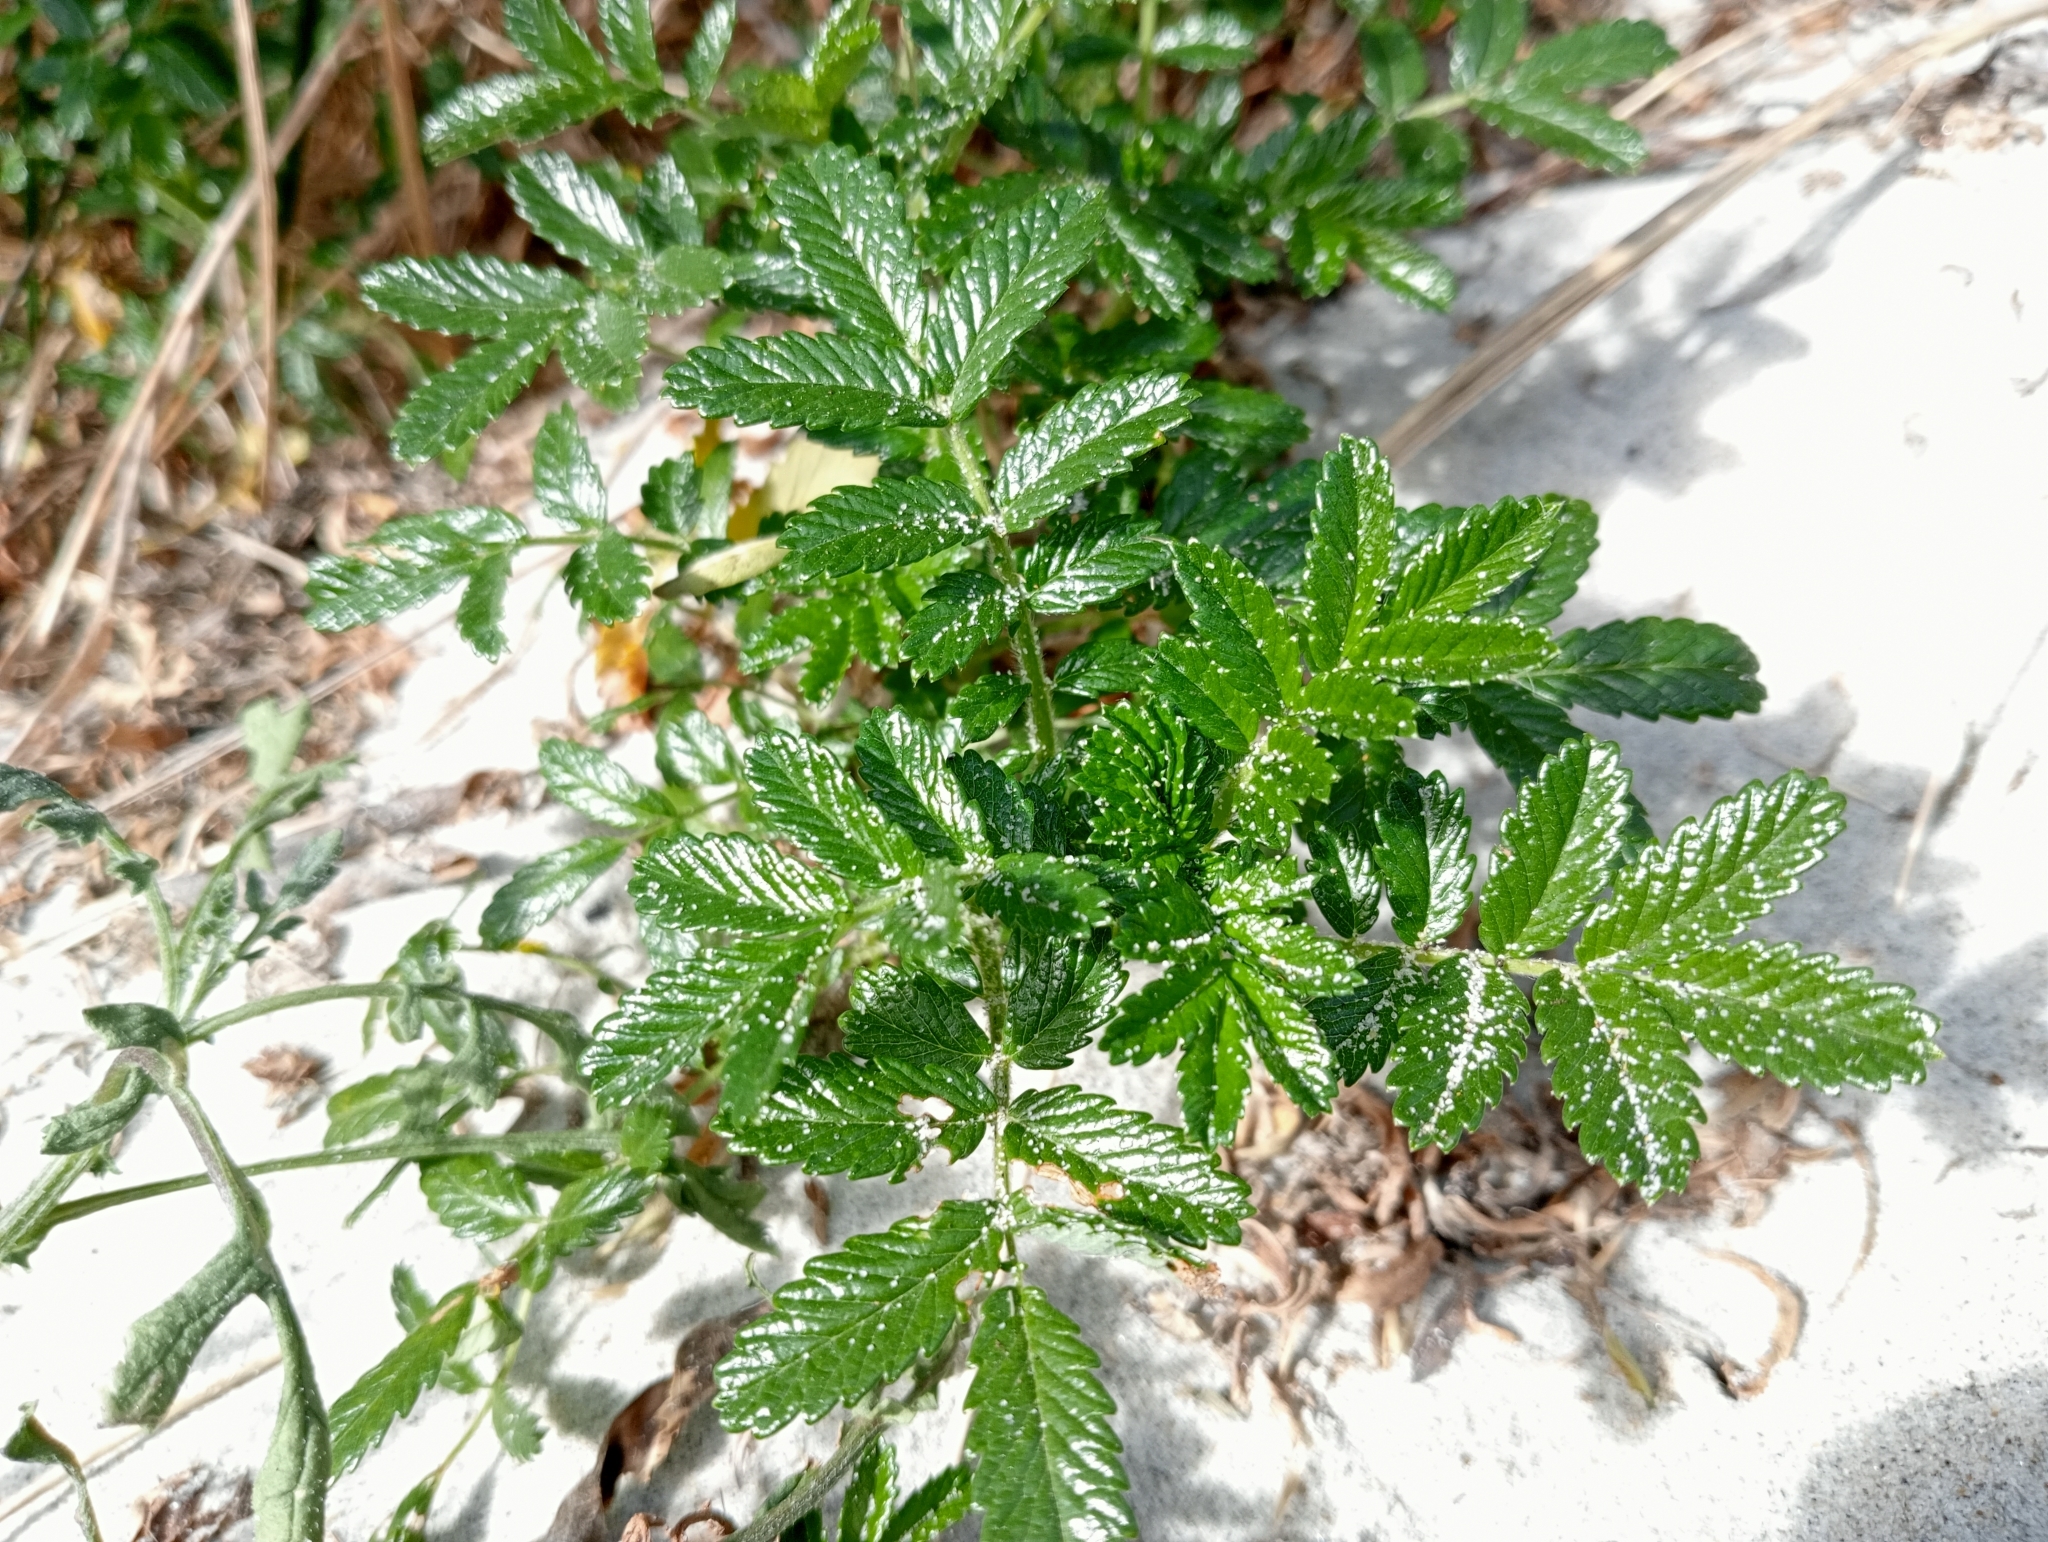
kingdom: Plantae
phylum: Tracheophyta
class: Magnoliopsida
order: Rosales
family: Rosaceae
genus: Acaena
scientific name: Acaena pallida
